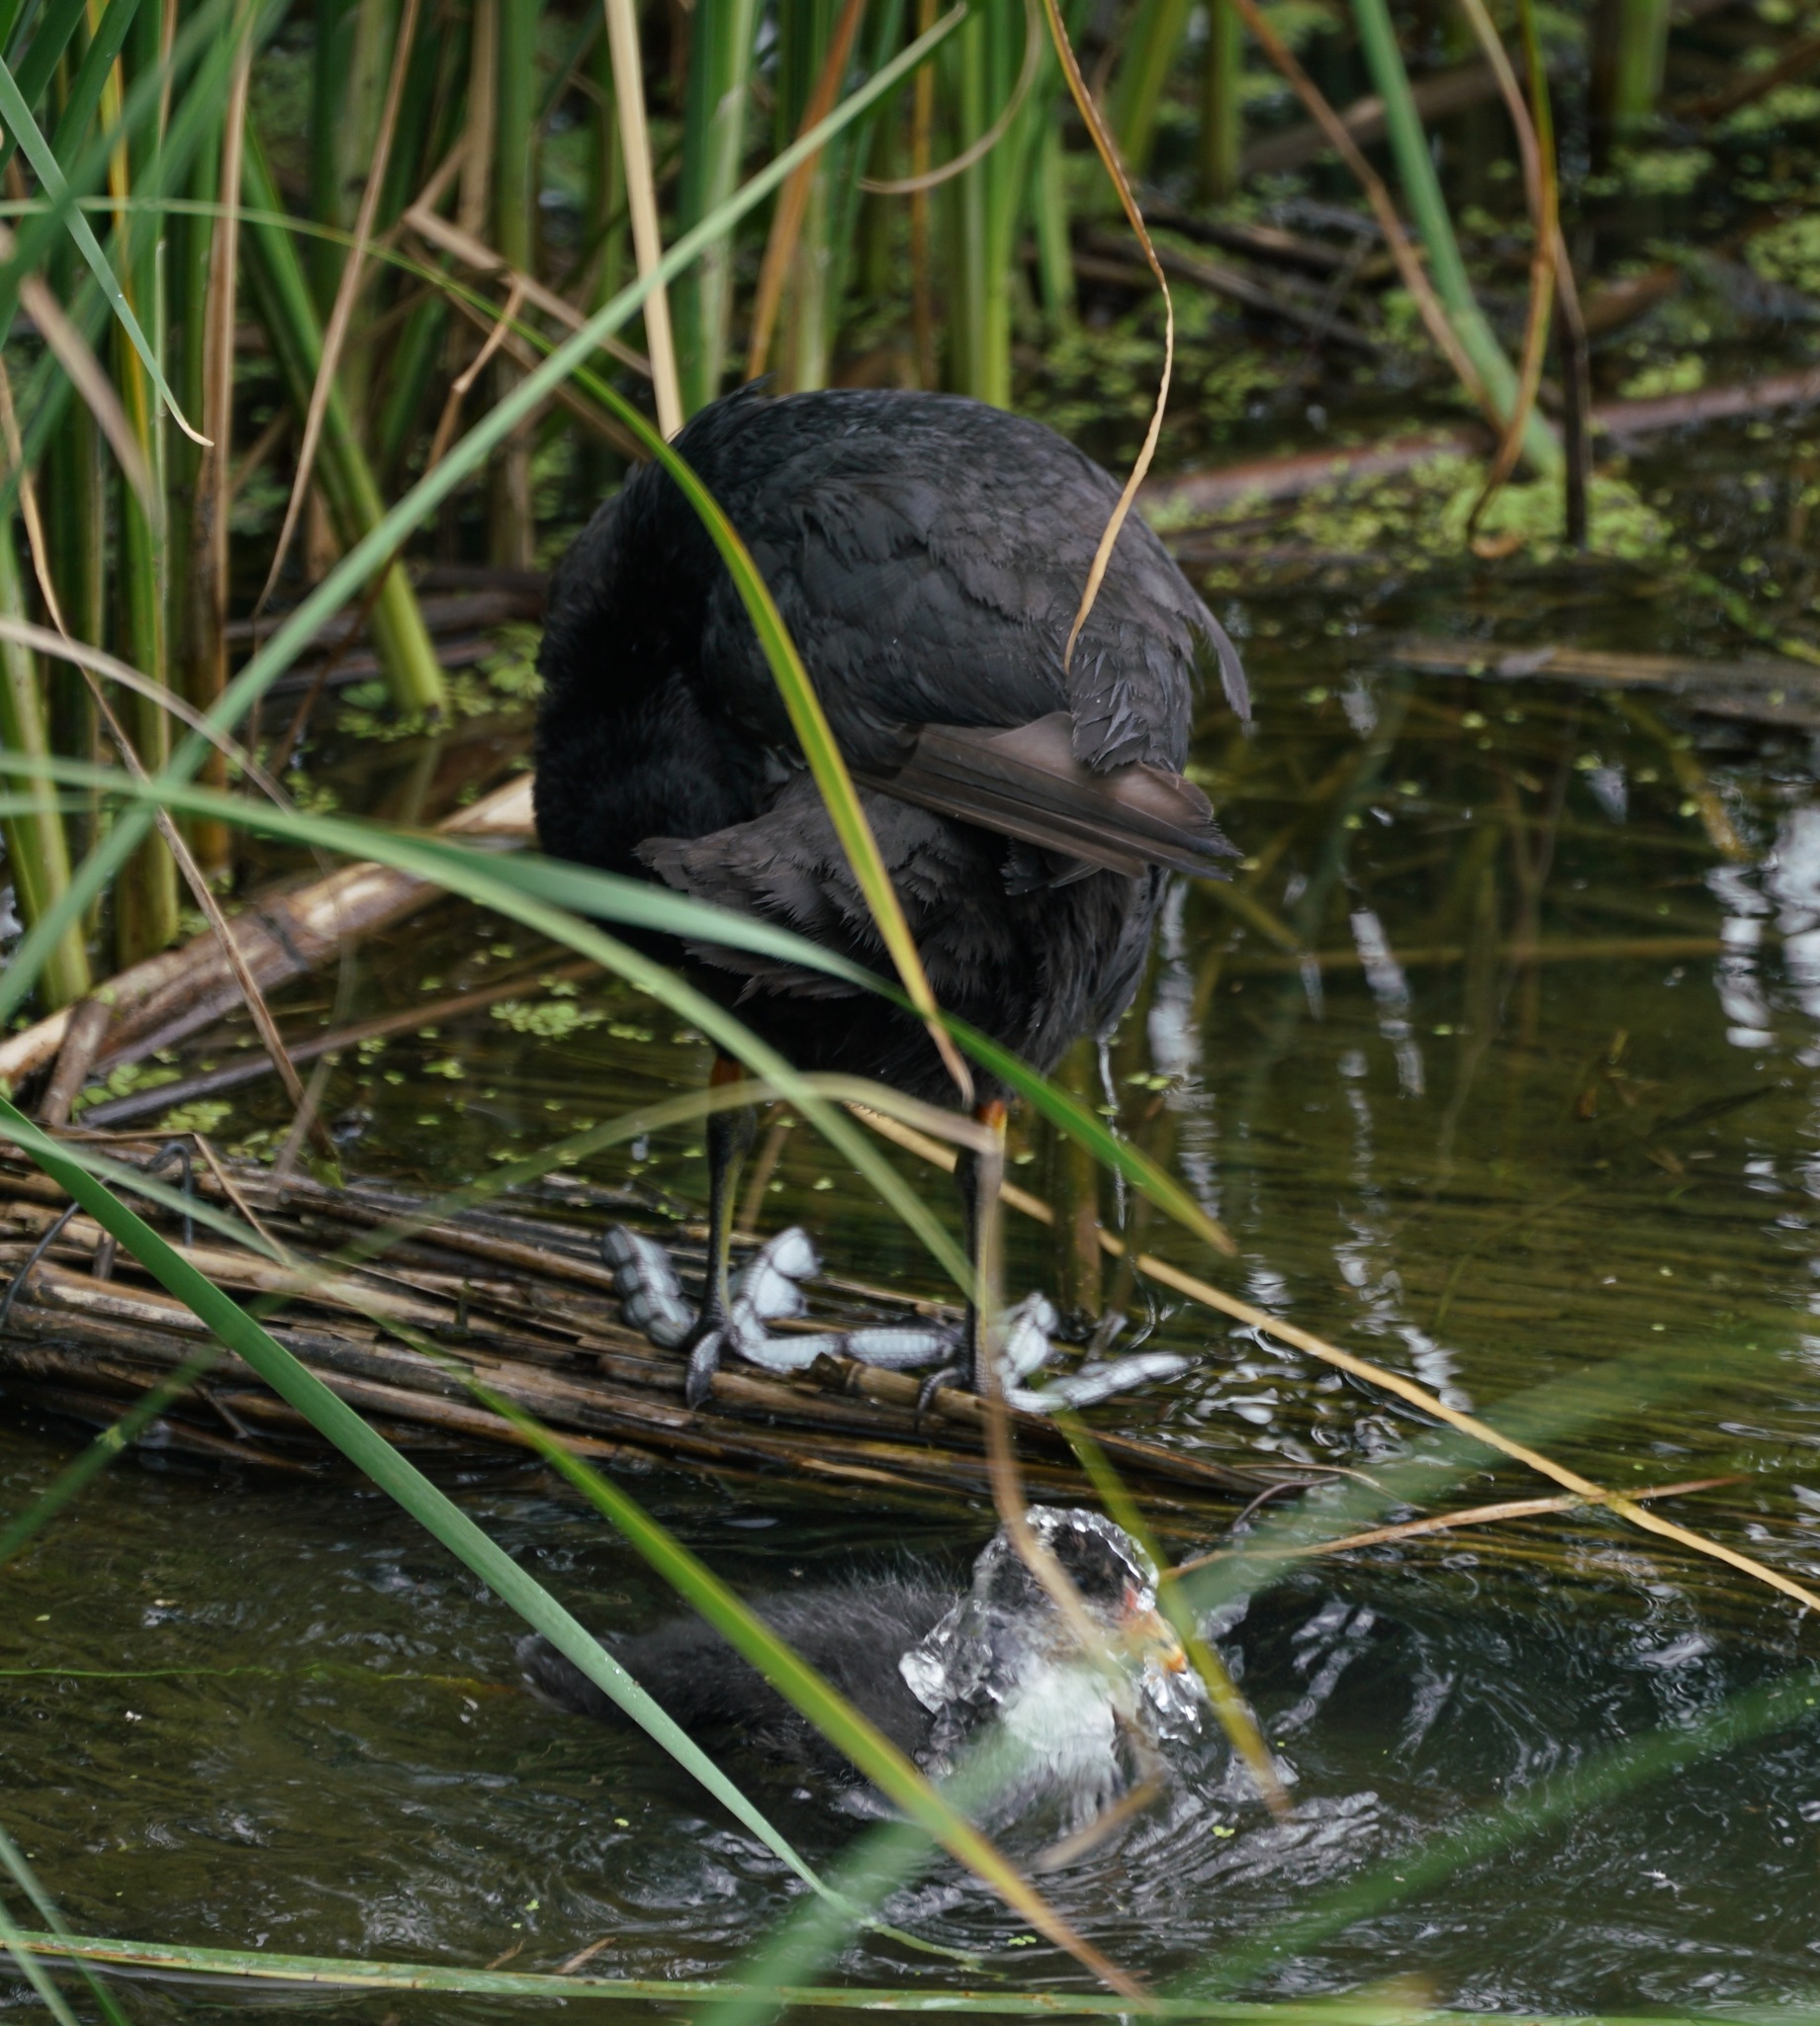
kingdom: Animalia
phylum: Chordata
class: Aves
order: Gruiformes
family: Rallidae
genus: Fulica
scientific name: Fulica atra
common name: Eurasian coot
